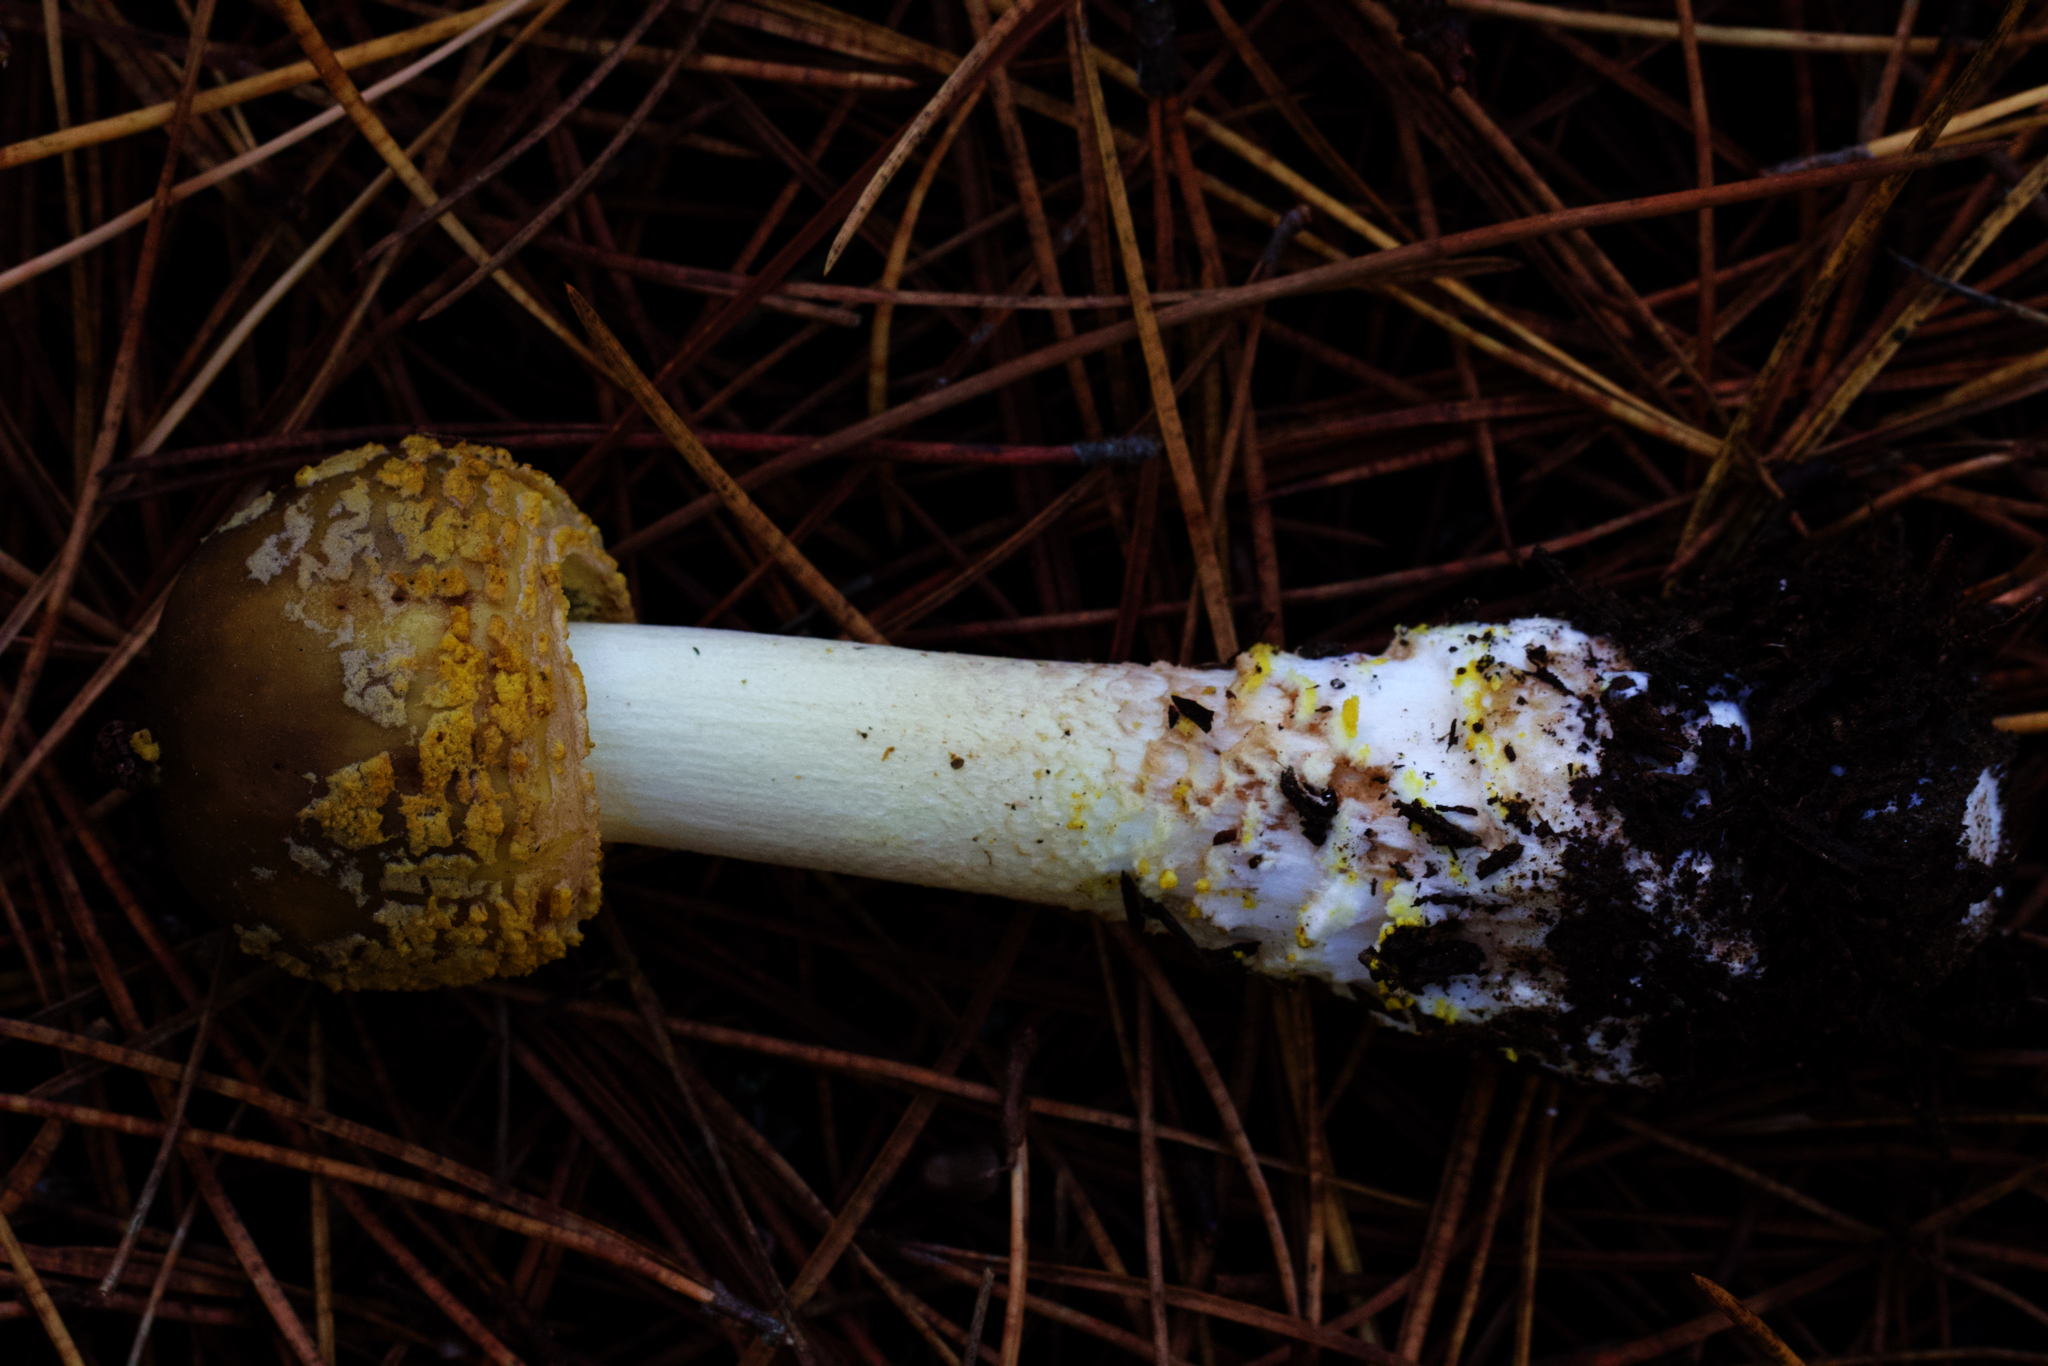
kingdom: Fungi
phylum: Basidiomycota
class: Agaricomycetes
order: Agaricales
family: Amanitaceae
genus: Amanita
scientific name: Amanita augusta
